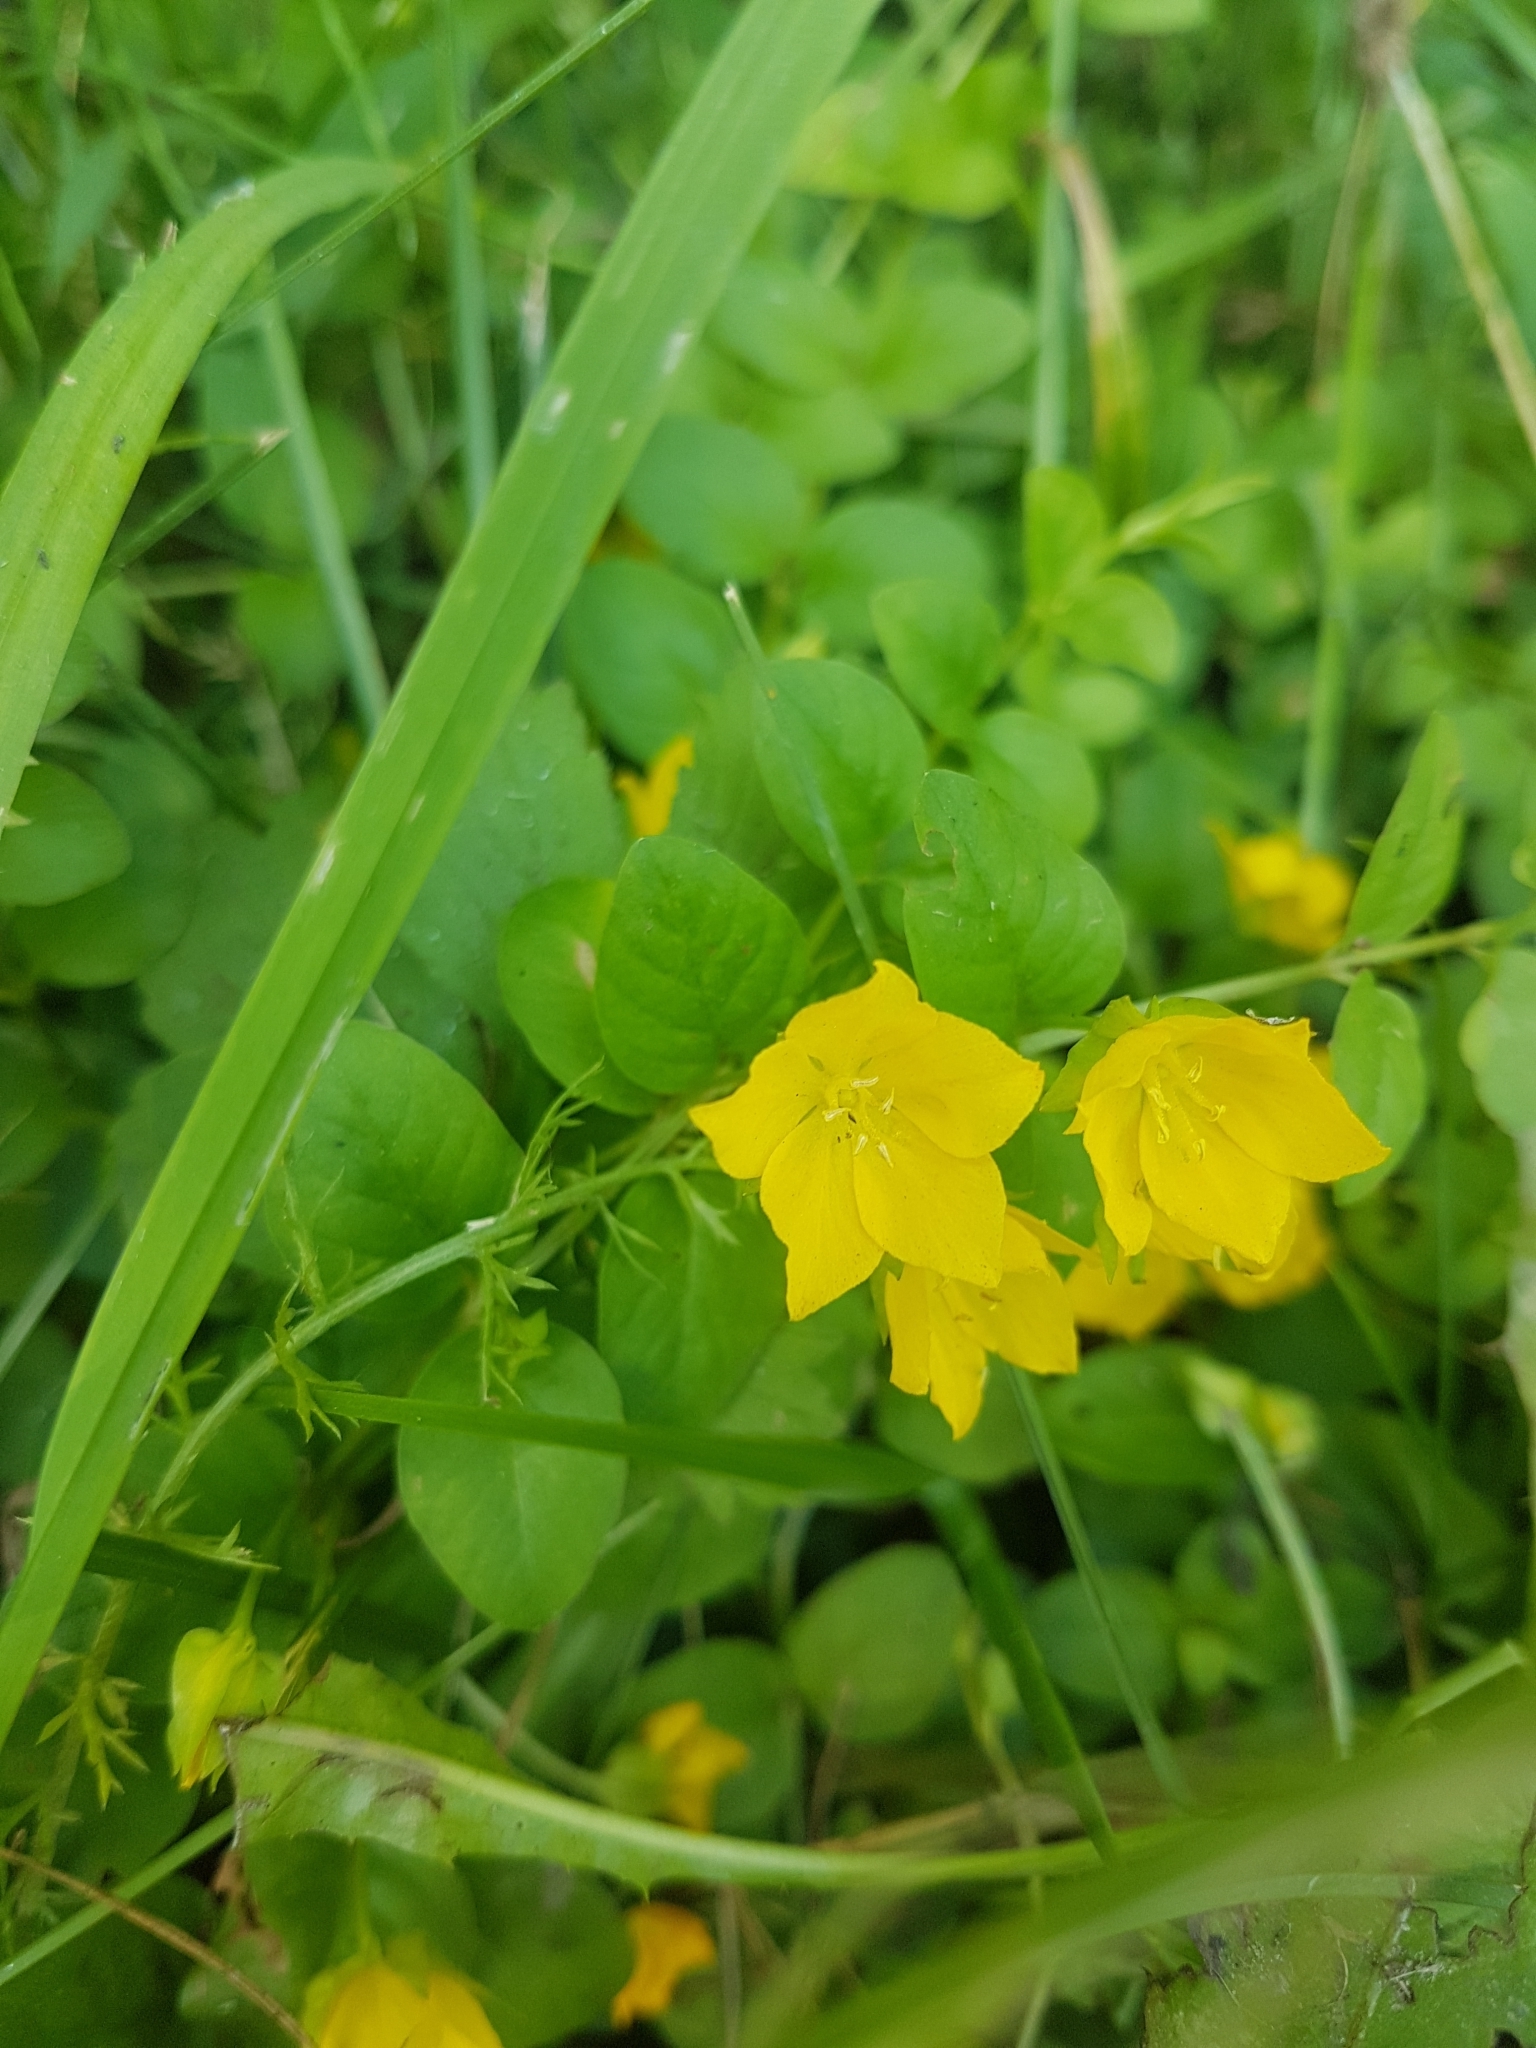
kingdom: Plantae
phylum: Tracheophyta
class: Magnoliopsida
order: Ericales
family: Primulaceae
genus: Lysimachia
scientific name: Lysimachia nummularia
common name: Moneywort
